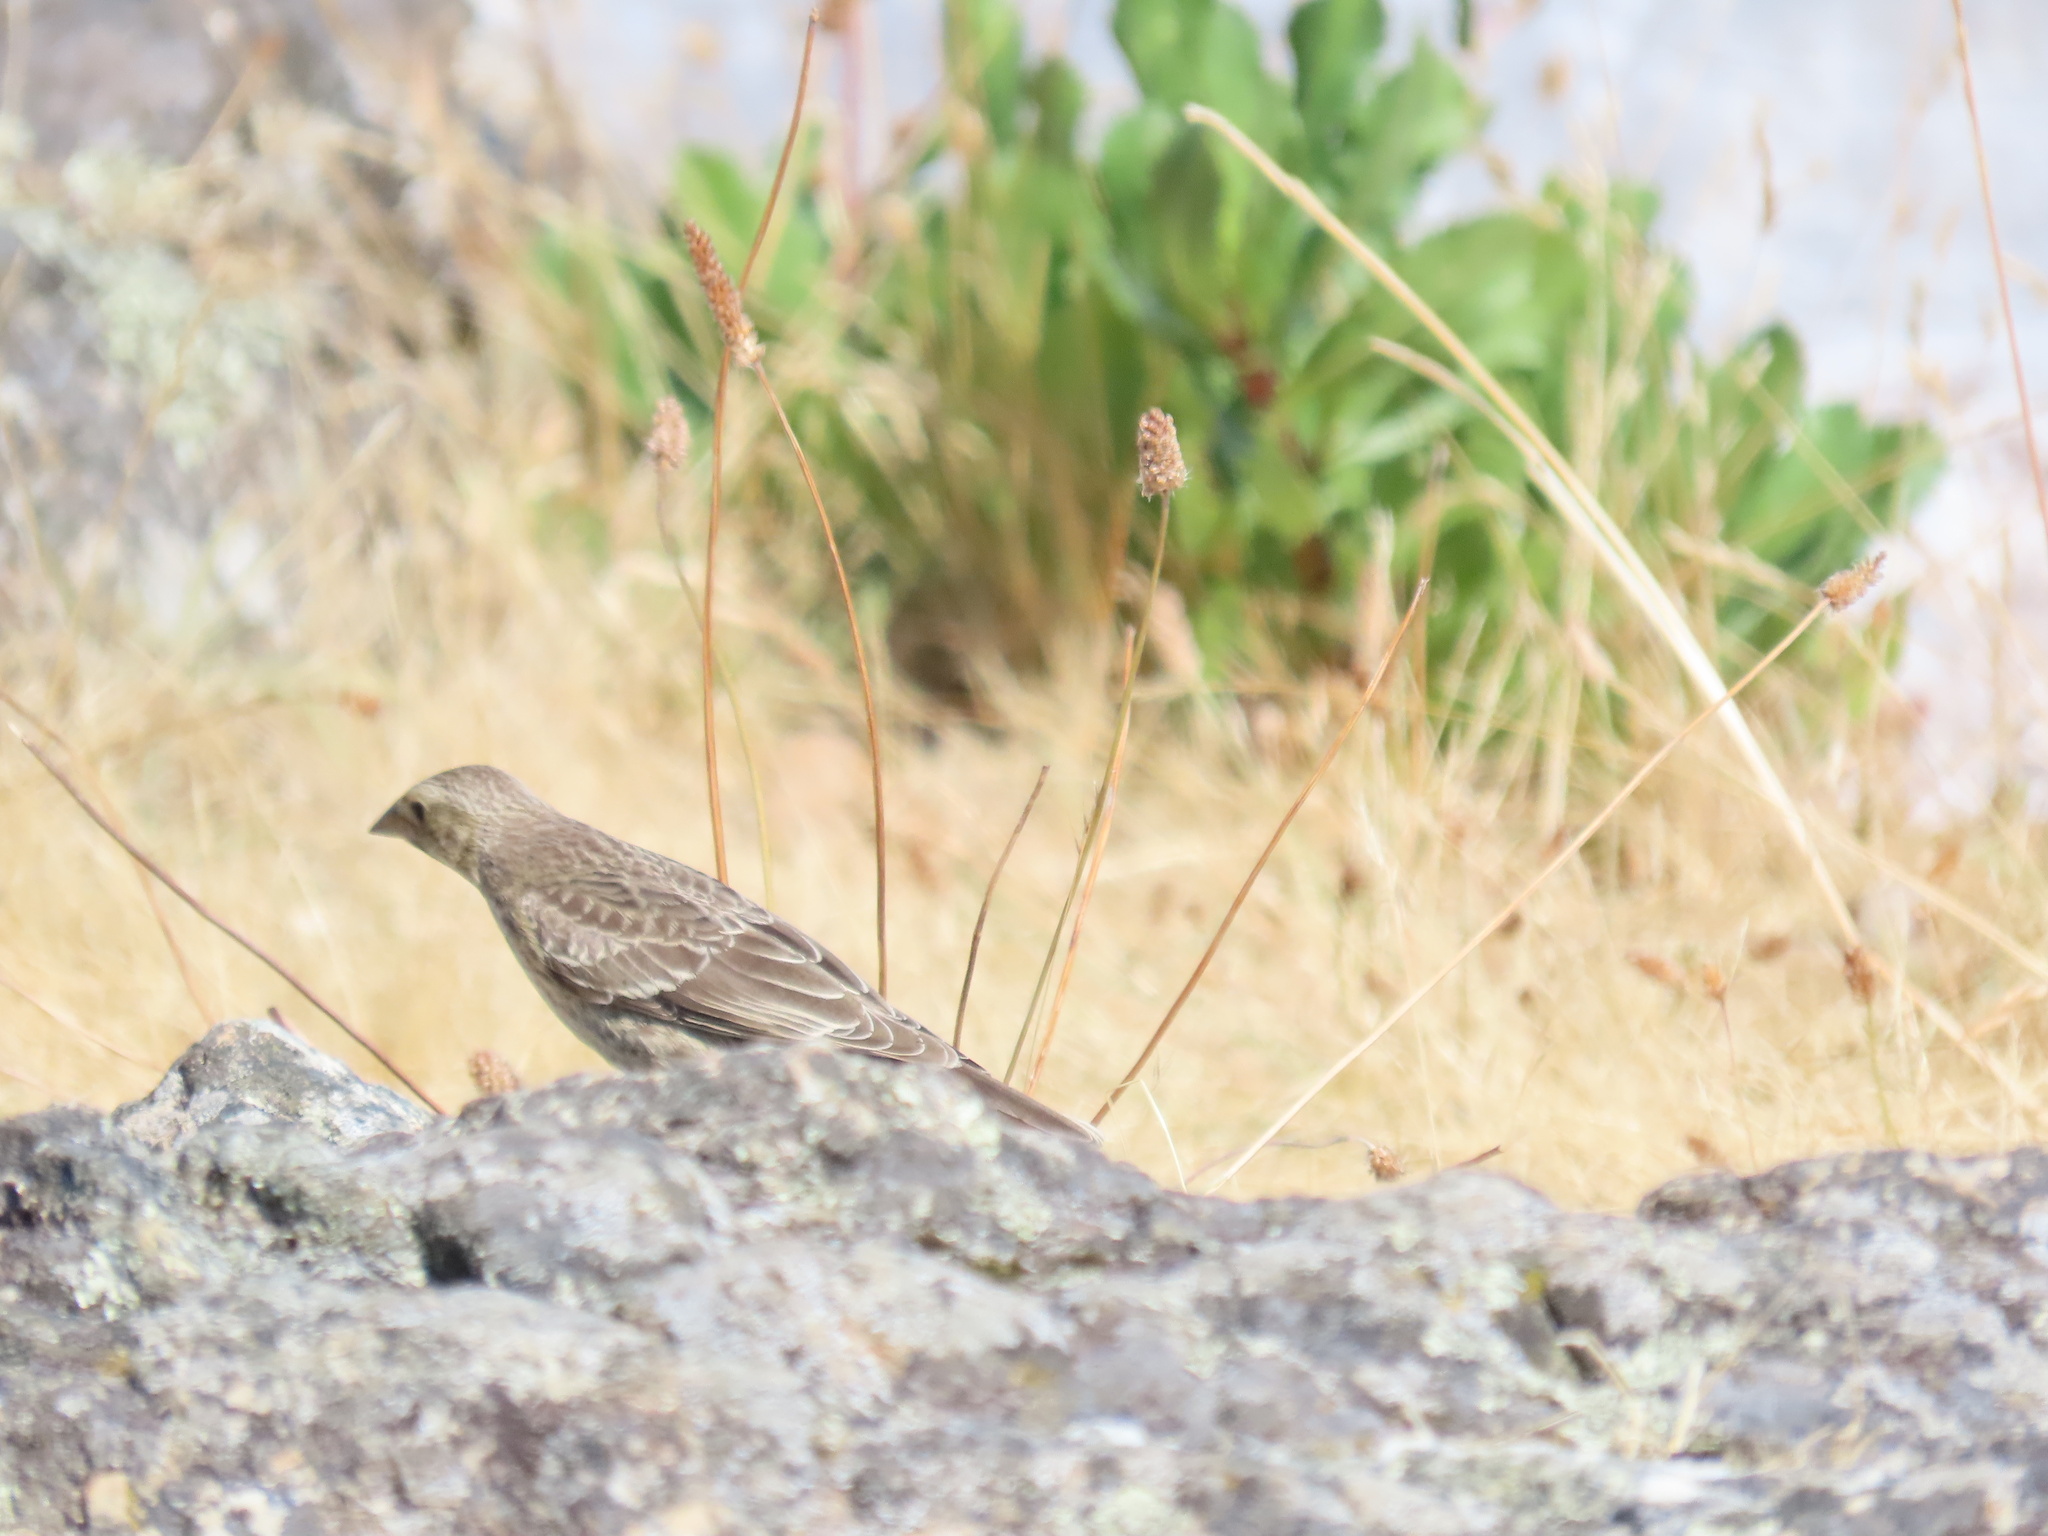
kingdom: Animalia
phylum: Chordata
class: Aves
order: Passeriformes
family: Icteridae
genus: Molothrus
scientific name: Molothrus ater
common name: Brown-headed cowbird
